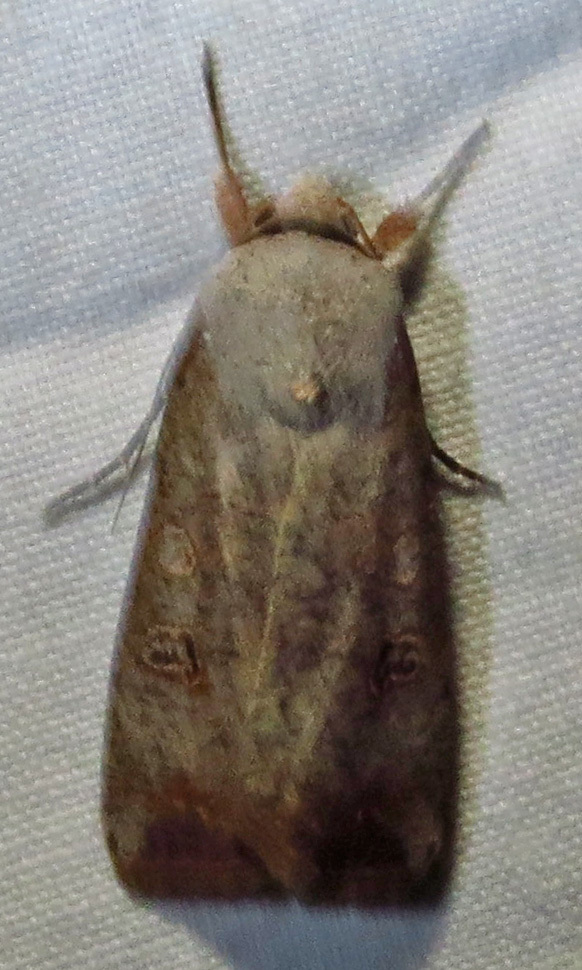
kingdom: Animalia
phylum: Arthropoda
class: Insecta
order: Lepidoptera
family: Noctuidae
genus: Anicla
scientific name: Anicla infecta
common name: Green cutworm
